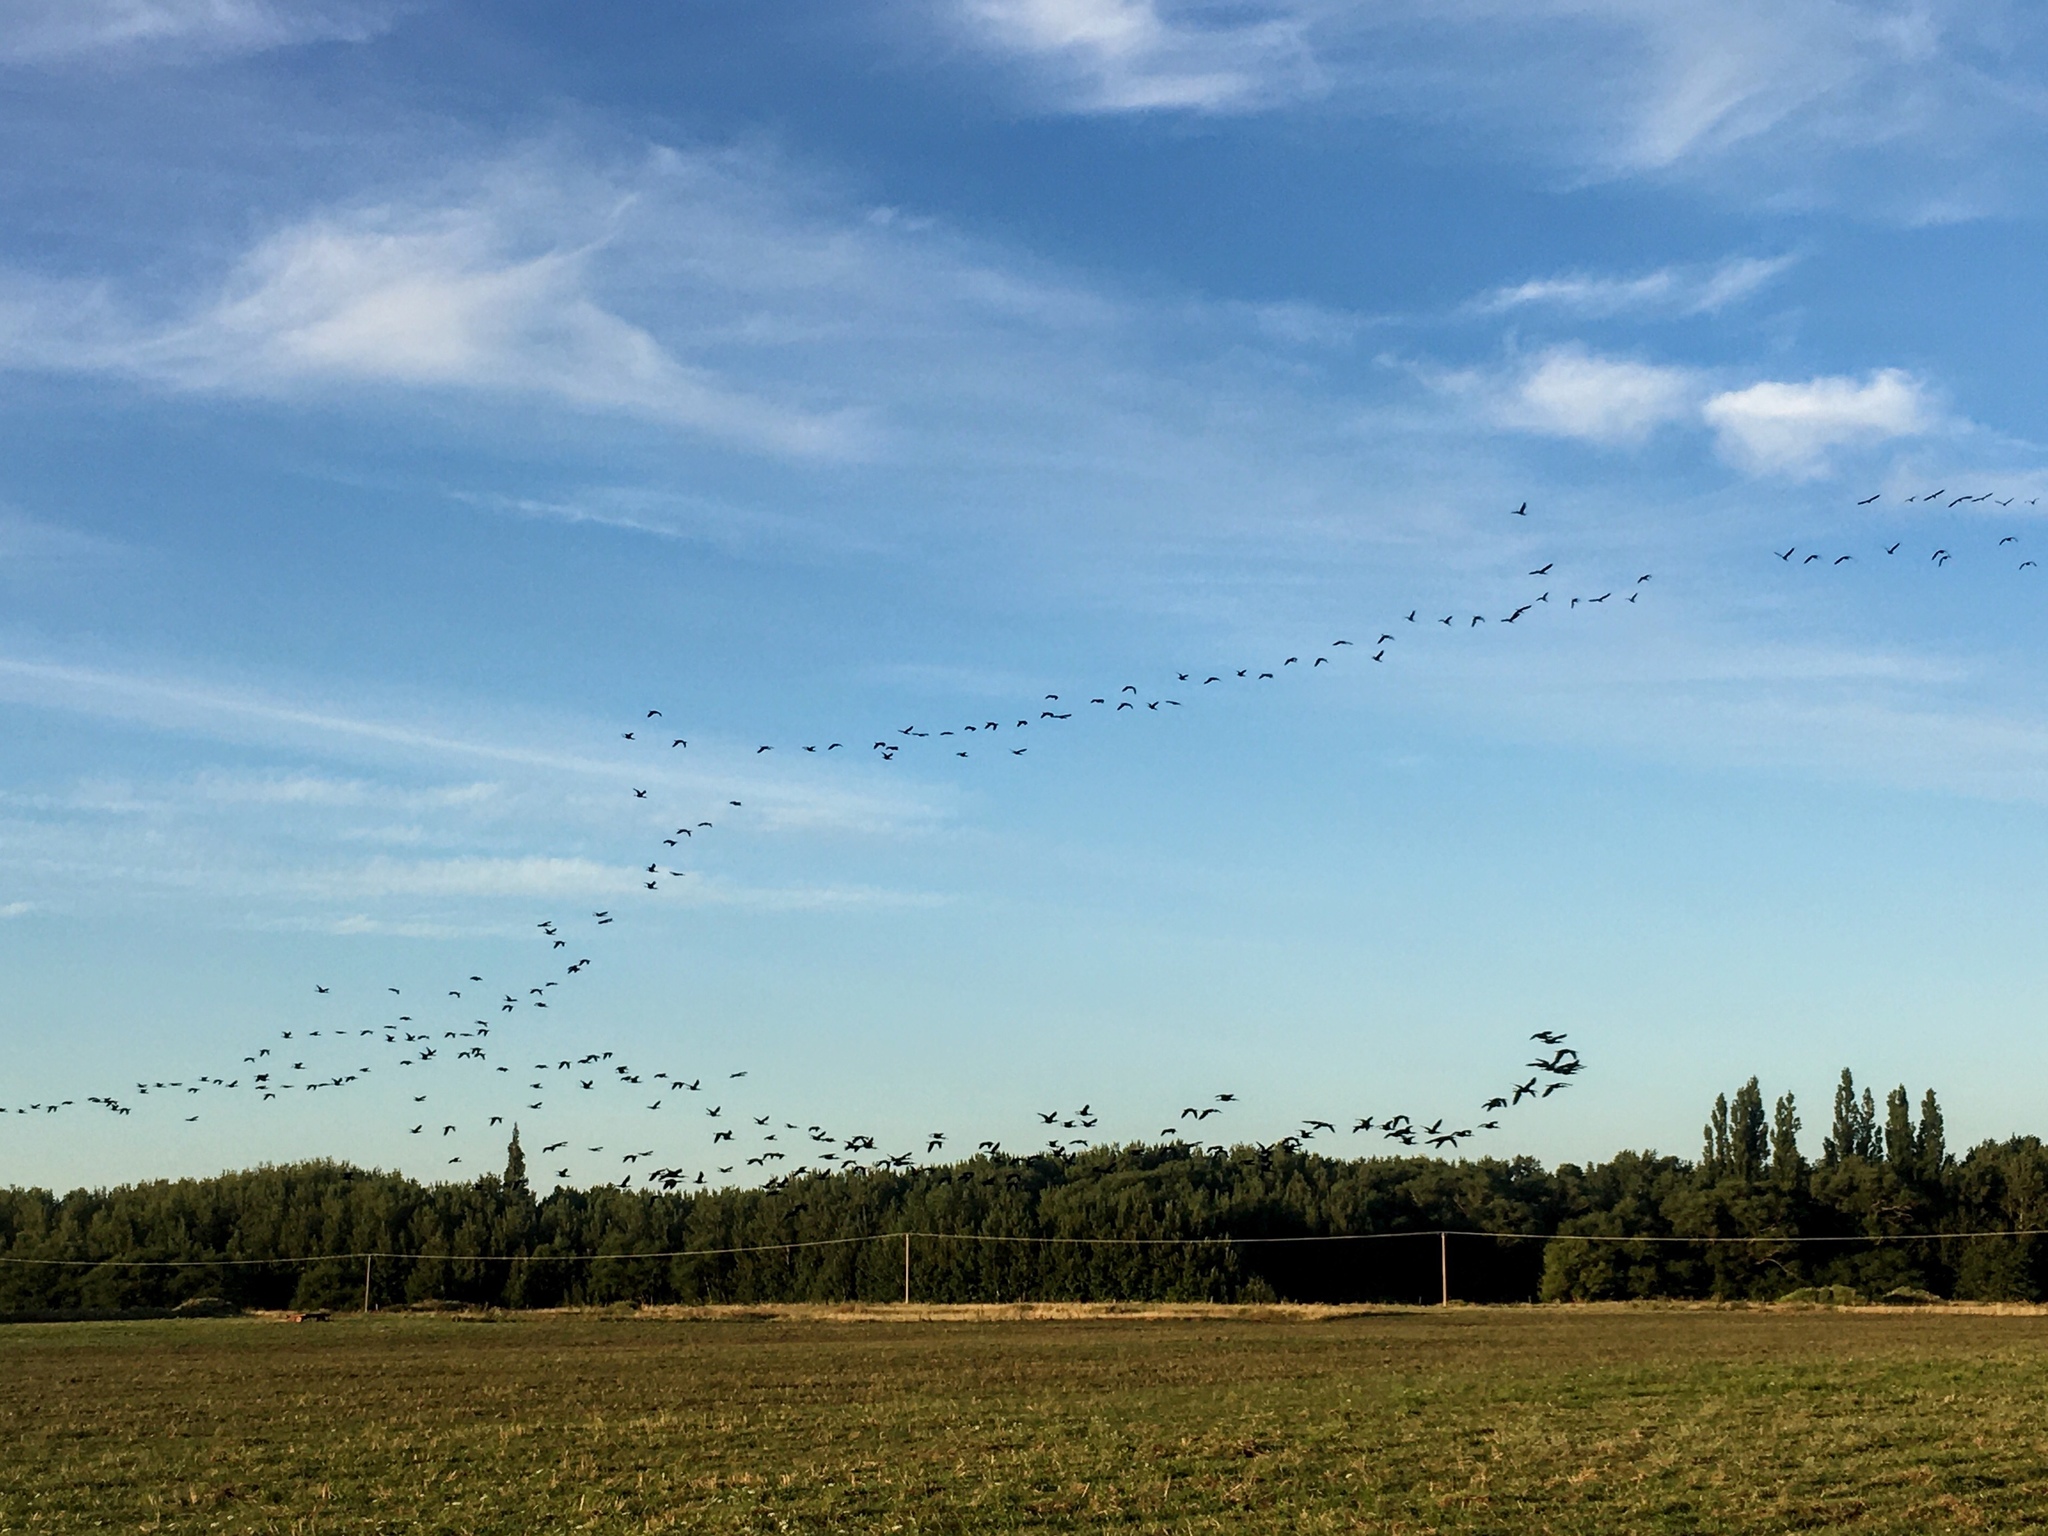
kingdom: Animalia
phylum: Chordata
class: Aves
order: Pelecaniformes
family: Threskiornithidae
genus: Plegadis
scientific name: Plegadis chihi
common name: White-faced ibis
